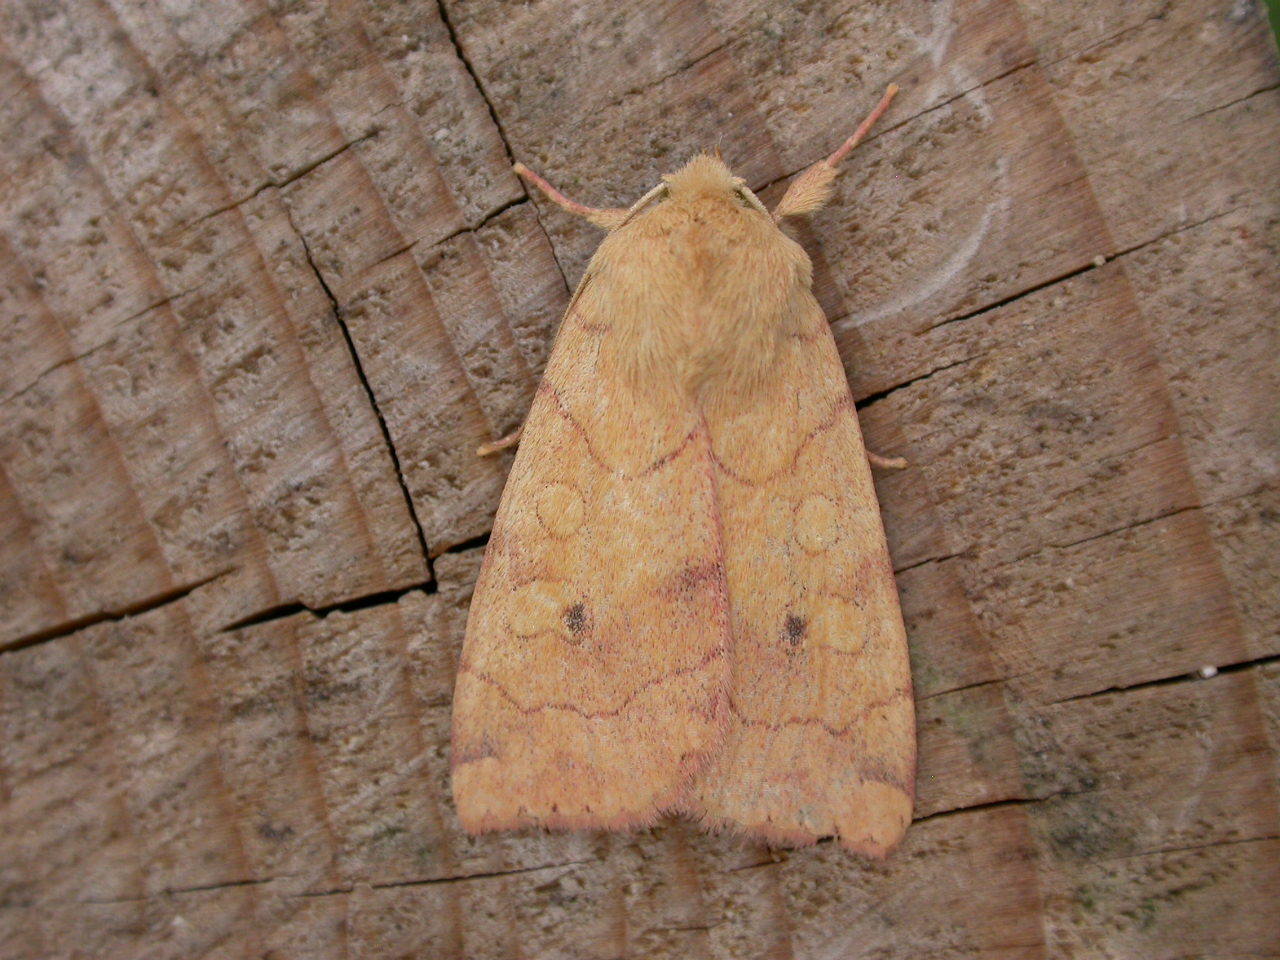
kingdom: Animalia
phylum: Arthropoda
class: Insecta
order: Lepidoptera
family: Noctuidae
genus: Enargia
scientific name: Enargia paleacea
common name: Angle-striped sallow
